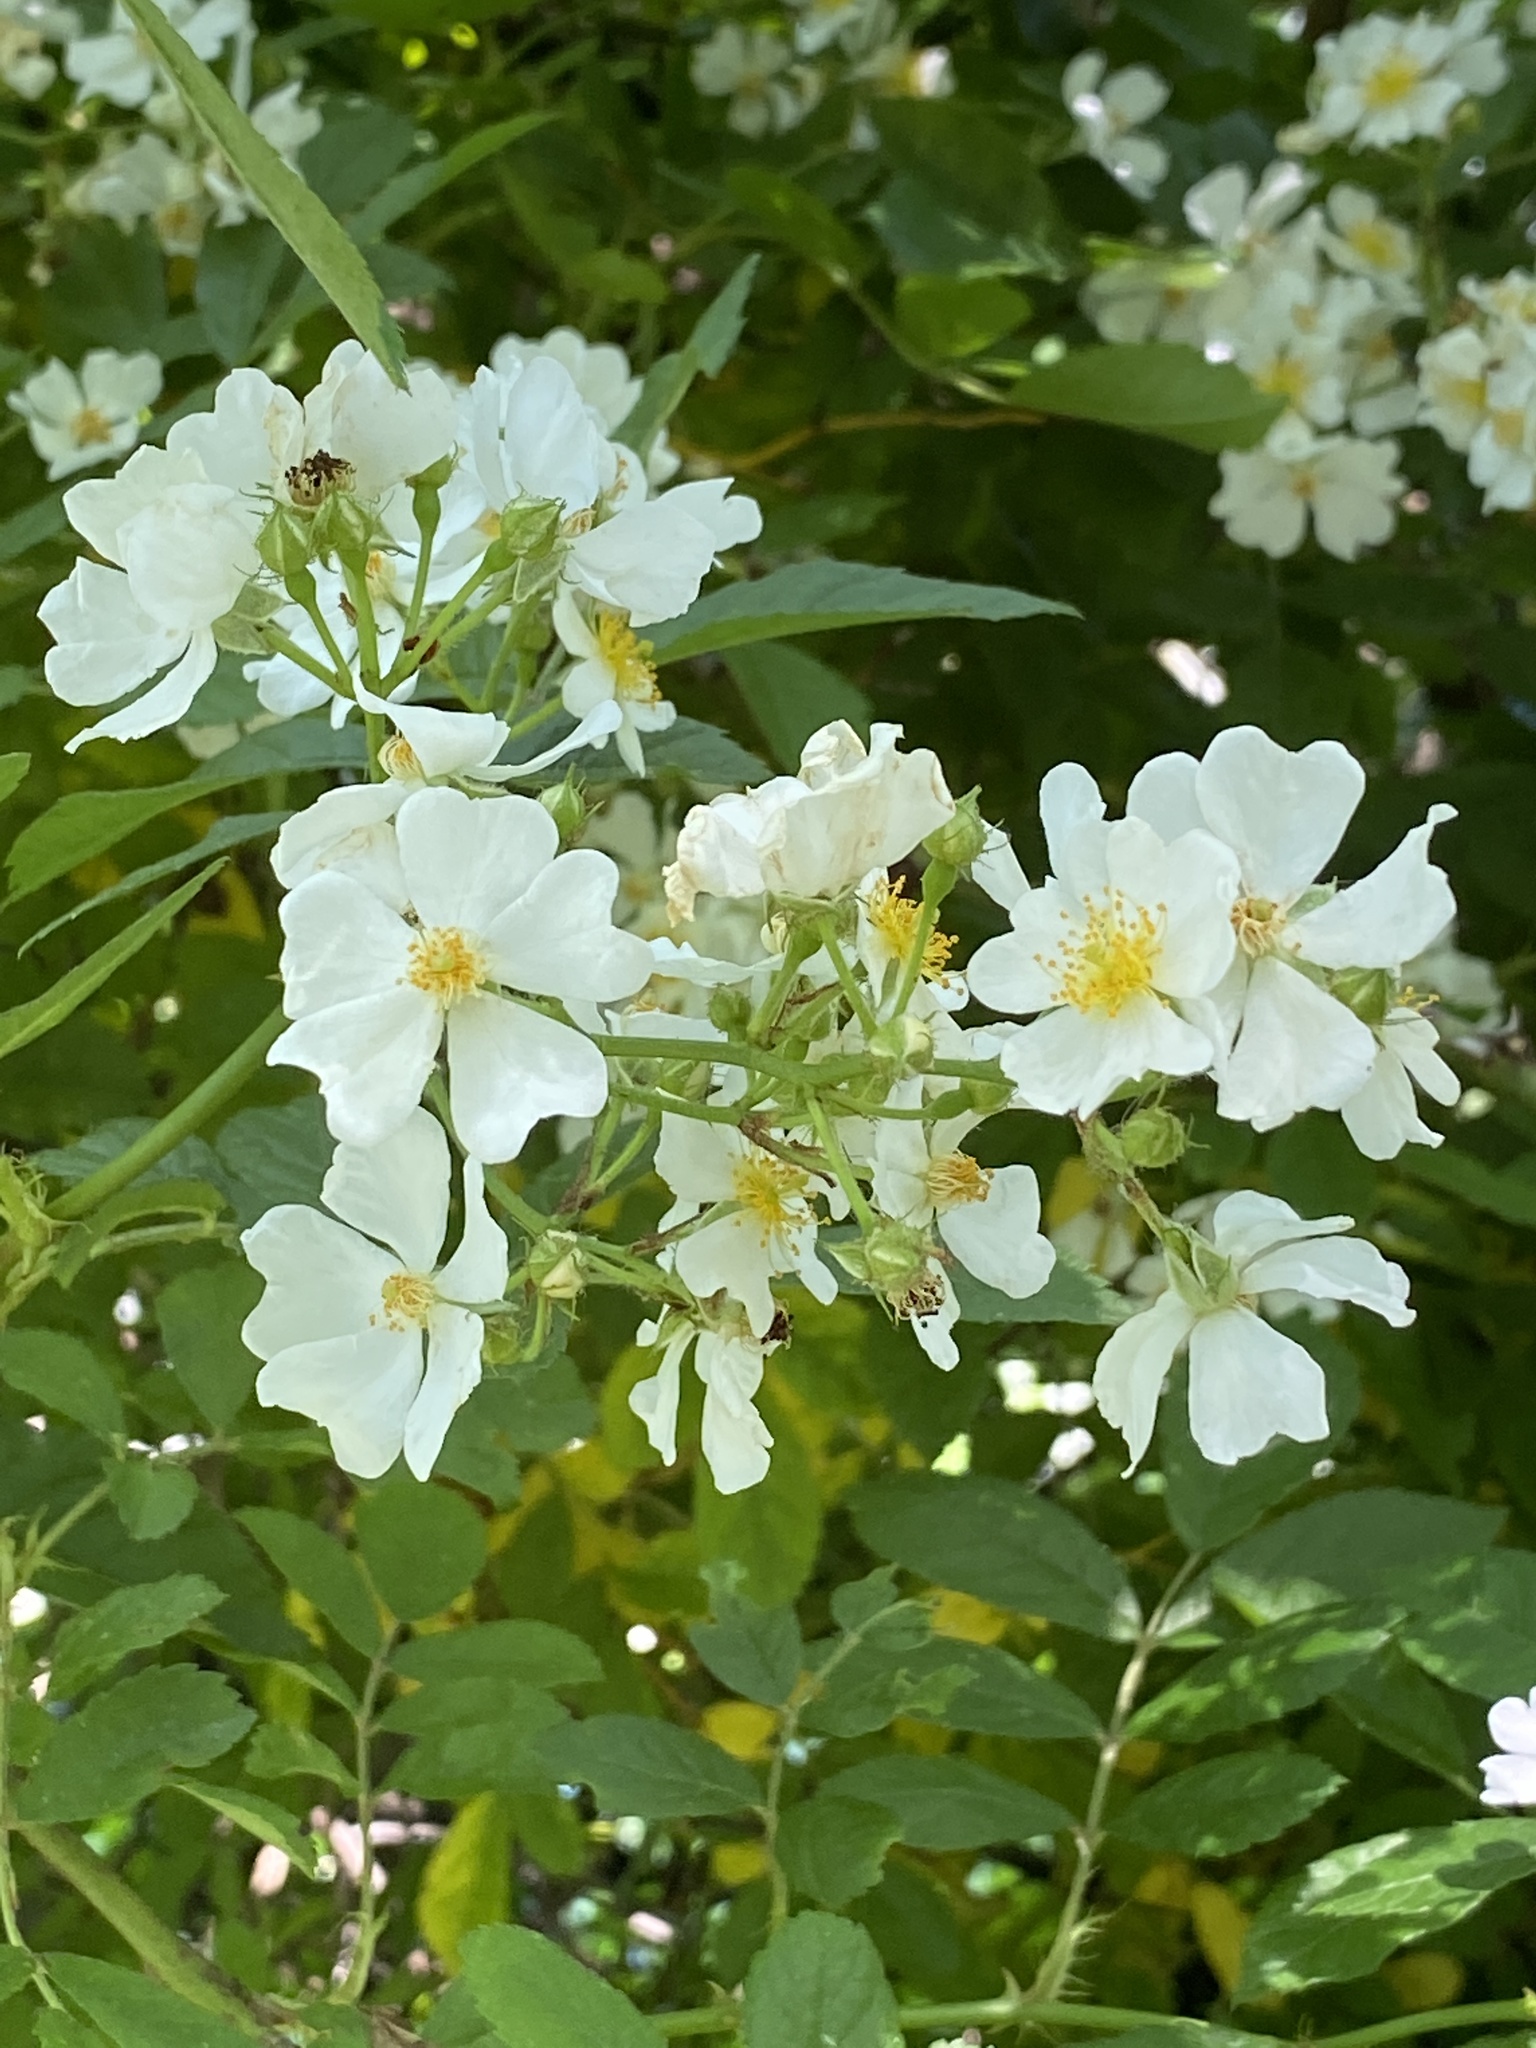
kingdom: Plantae
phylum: Tracheophyta
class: Magnoliopsida
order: Rosales
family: Rosaceae
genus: Rosa
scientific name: Rosa multiflora
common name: Multiflora rose
